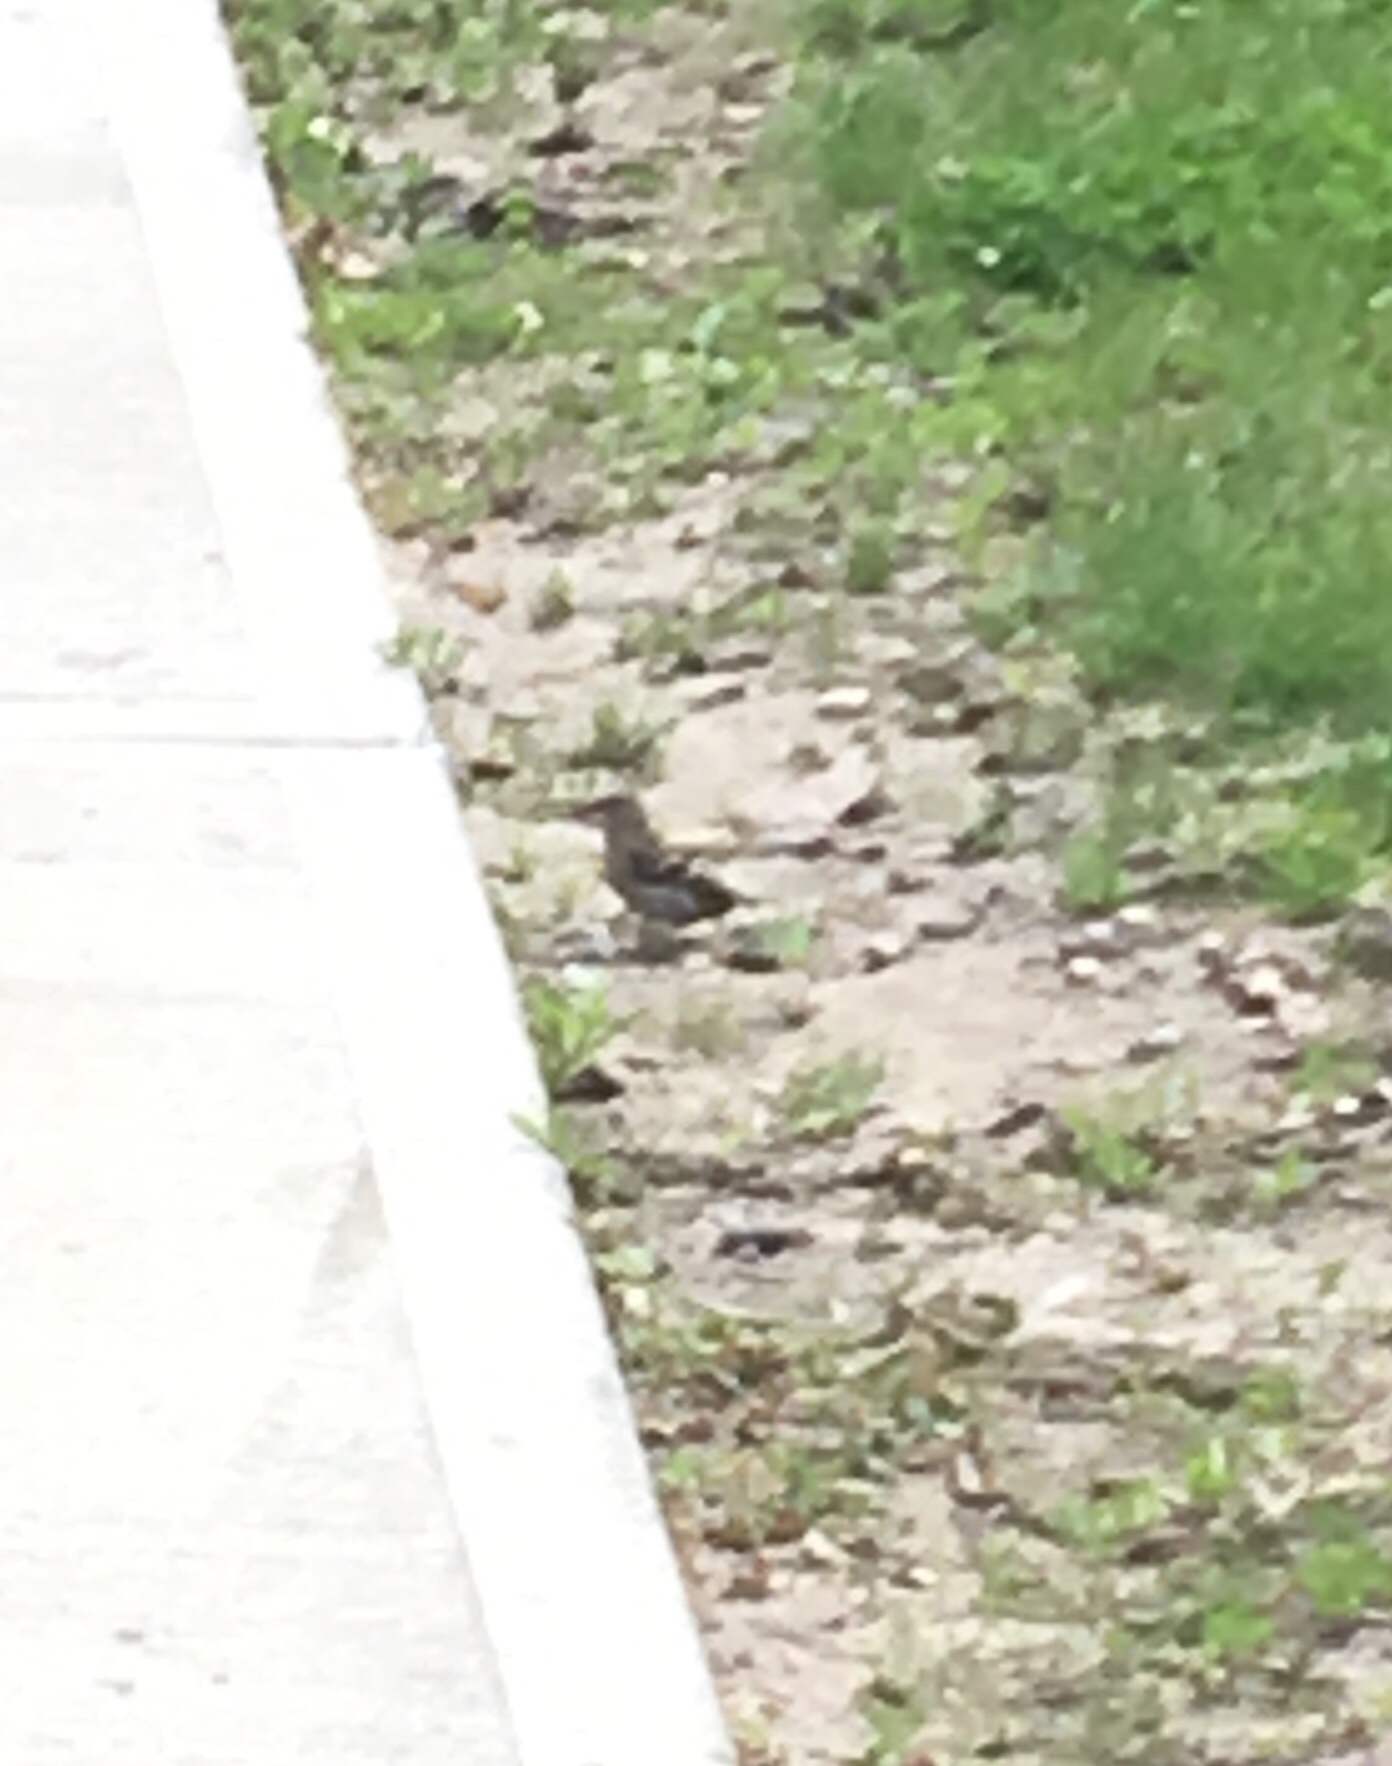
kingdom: Animalia
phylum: Chordata
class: Aves
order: Passeriformes
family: Fringillidae
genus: Spinus
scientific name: Spinus pinus
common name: Pine siskin
